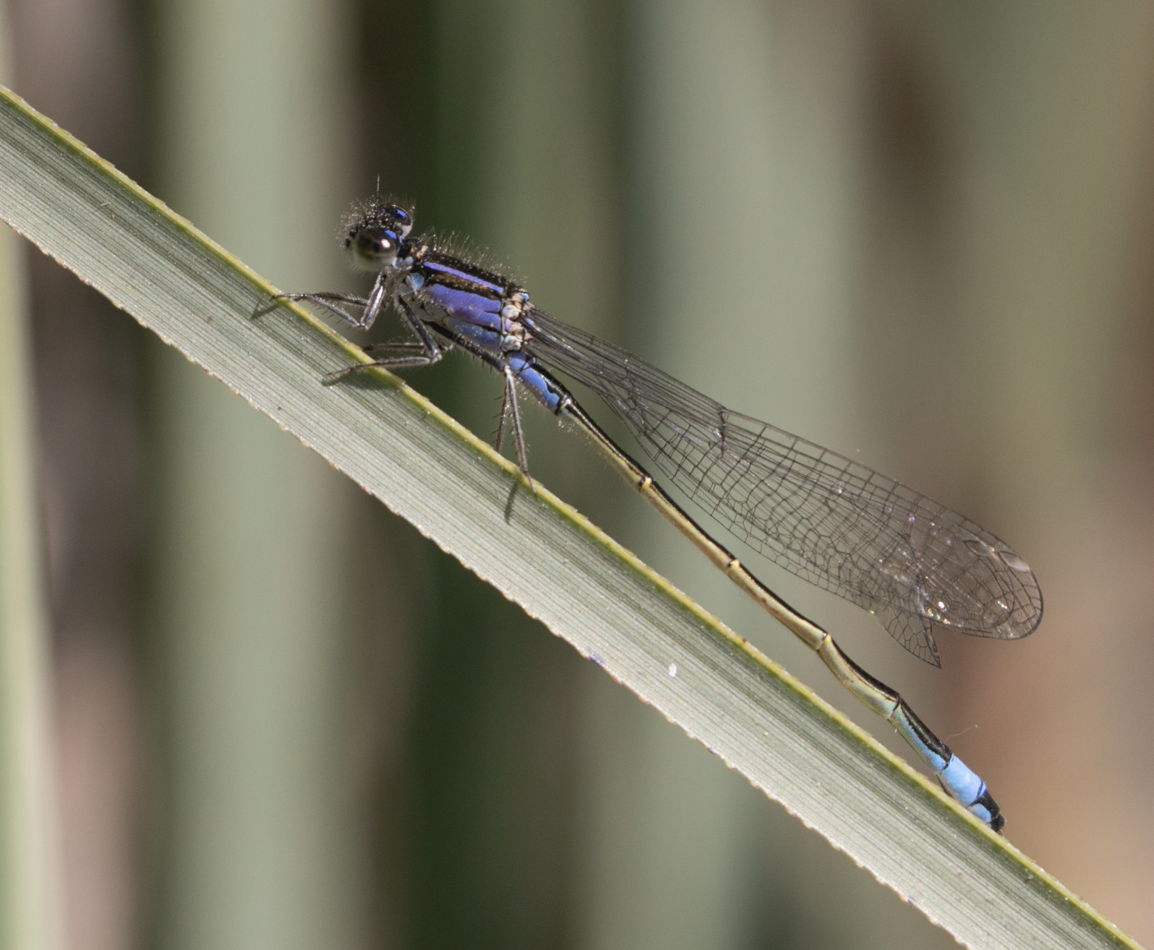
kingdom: Animalia
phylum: Arthropoda
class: Insecta
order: Odonata
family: Coenagrionidae
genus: Ischnura
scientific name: Ischnura elegans
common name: Blue-tailed damselfly
